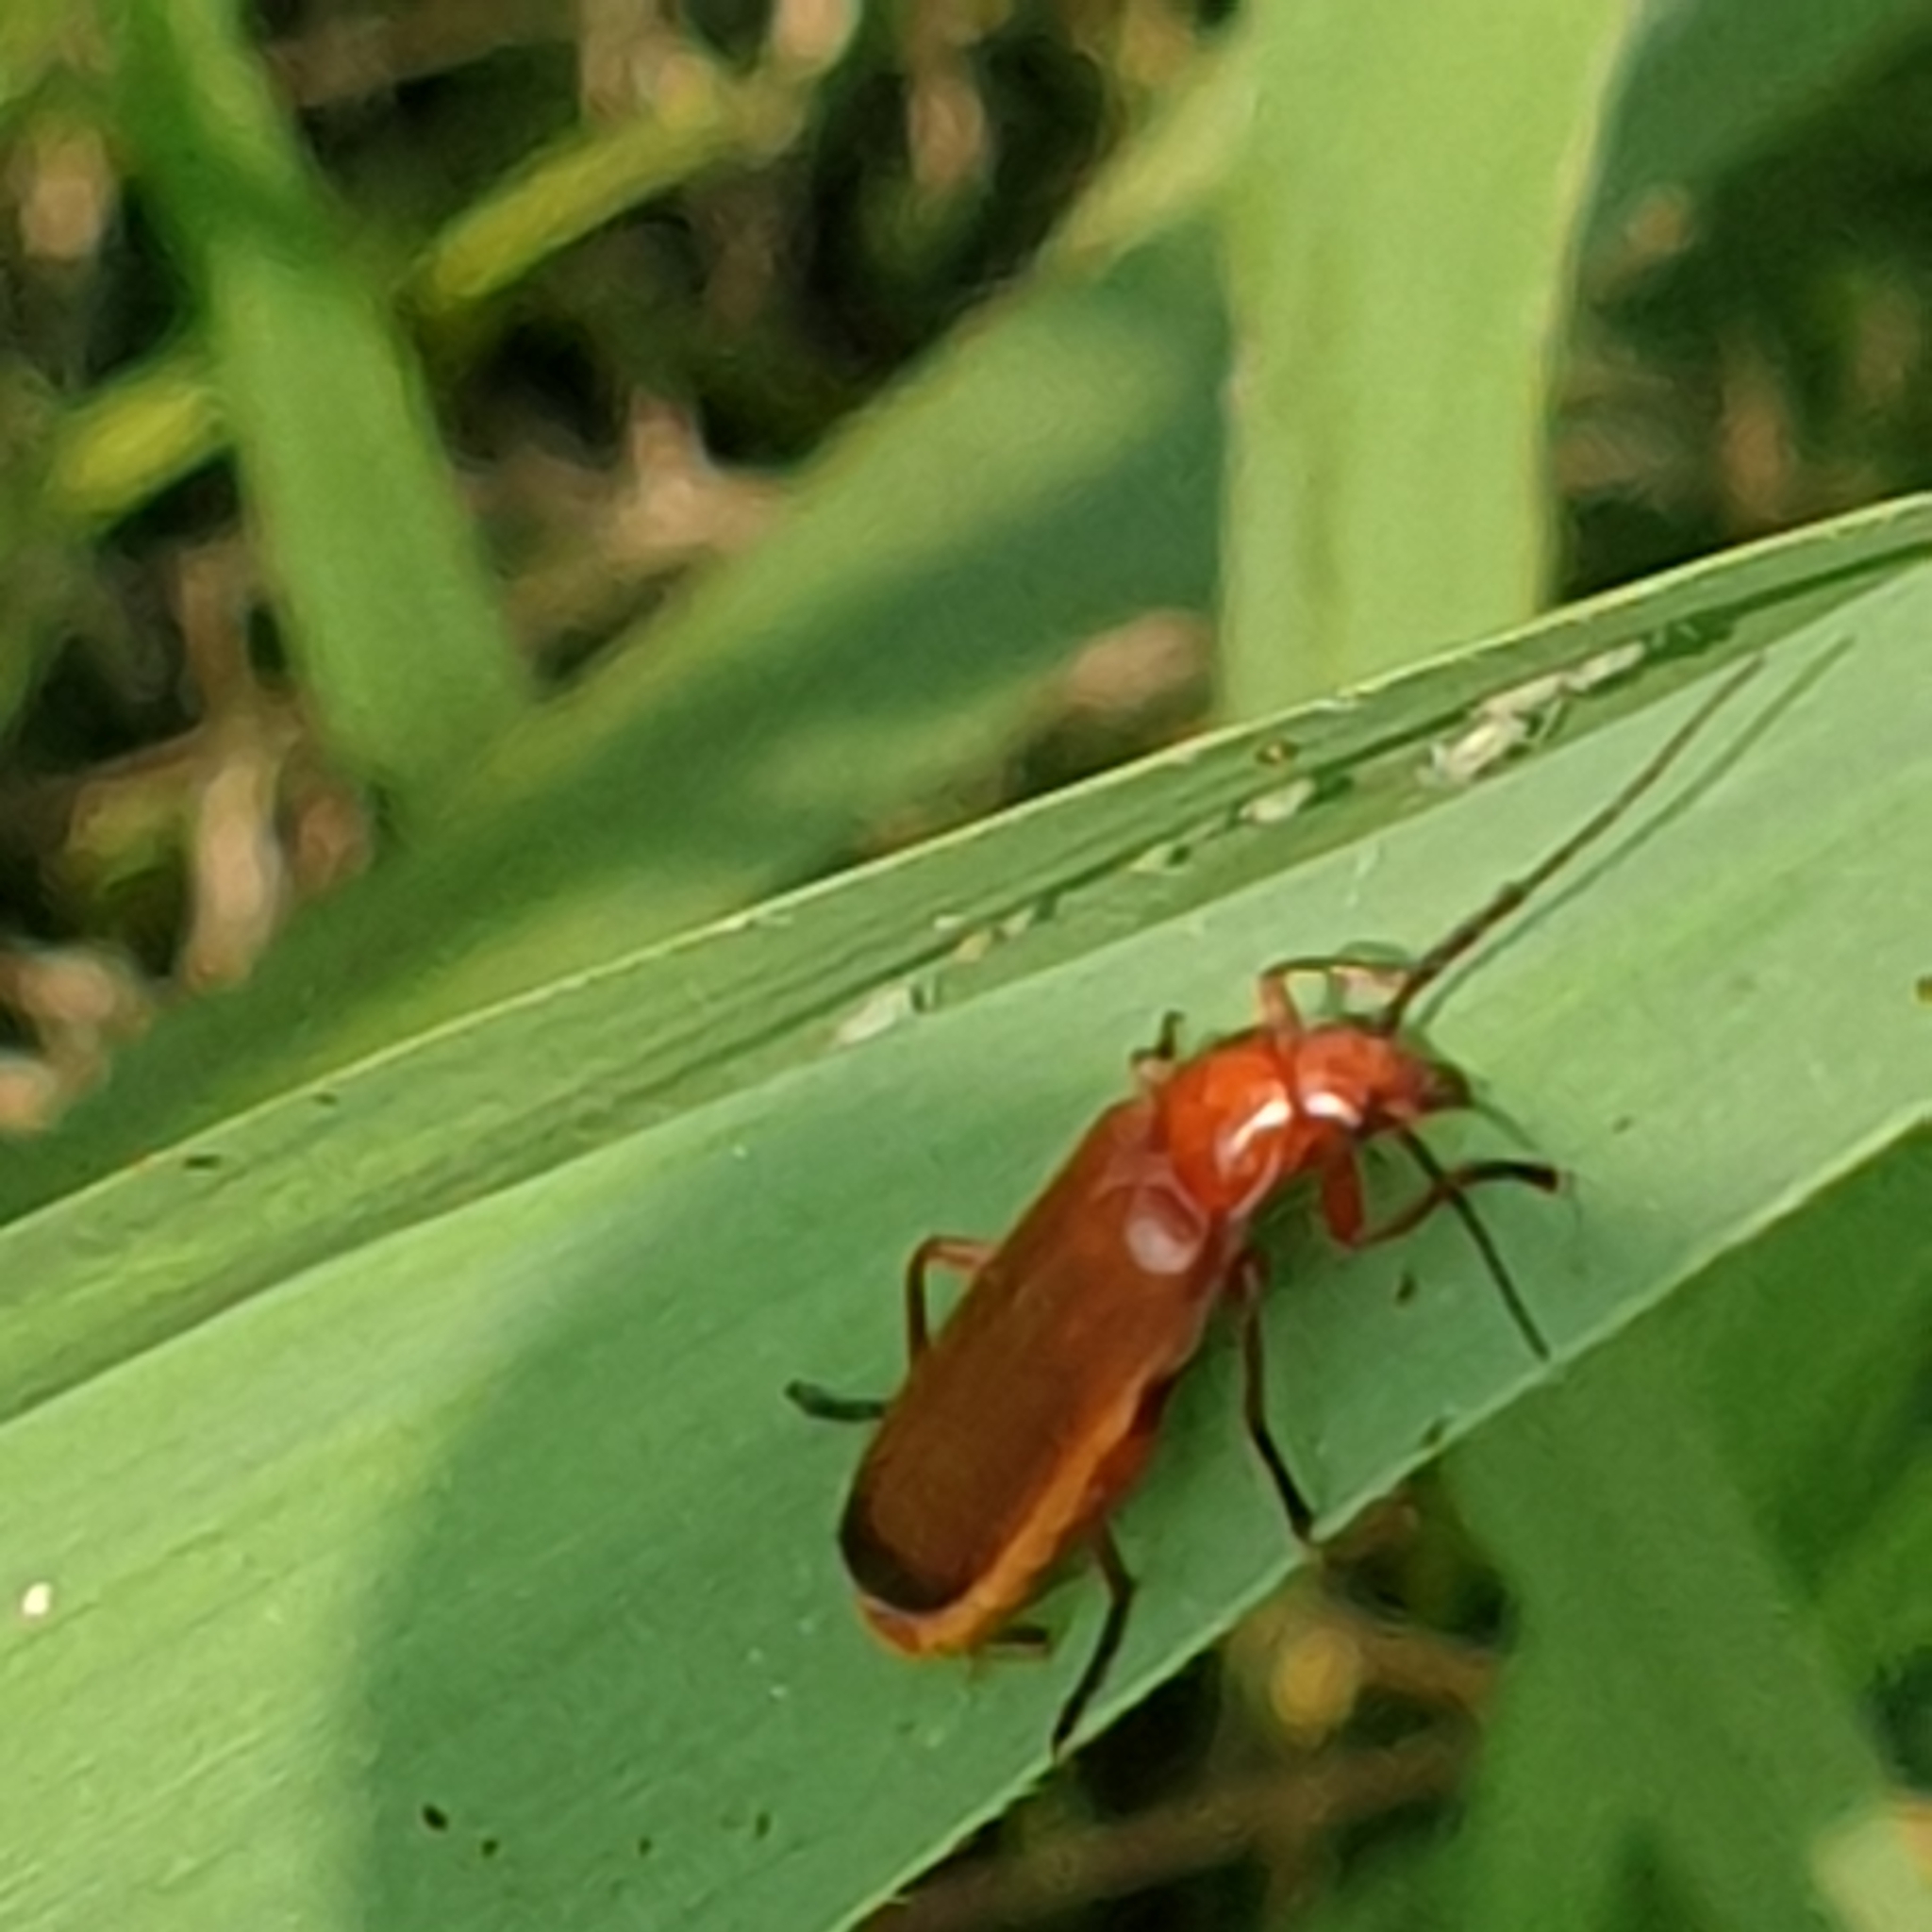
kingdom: Animalia
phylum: Arthropoda
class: Insecta
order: Coleoptera
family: Cantharidae
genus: Rhagonycha
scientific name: Rhagonycha fulva
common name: Common red soldier beetle
